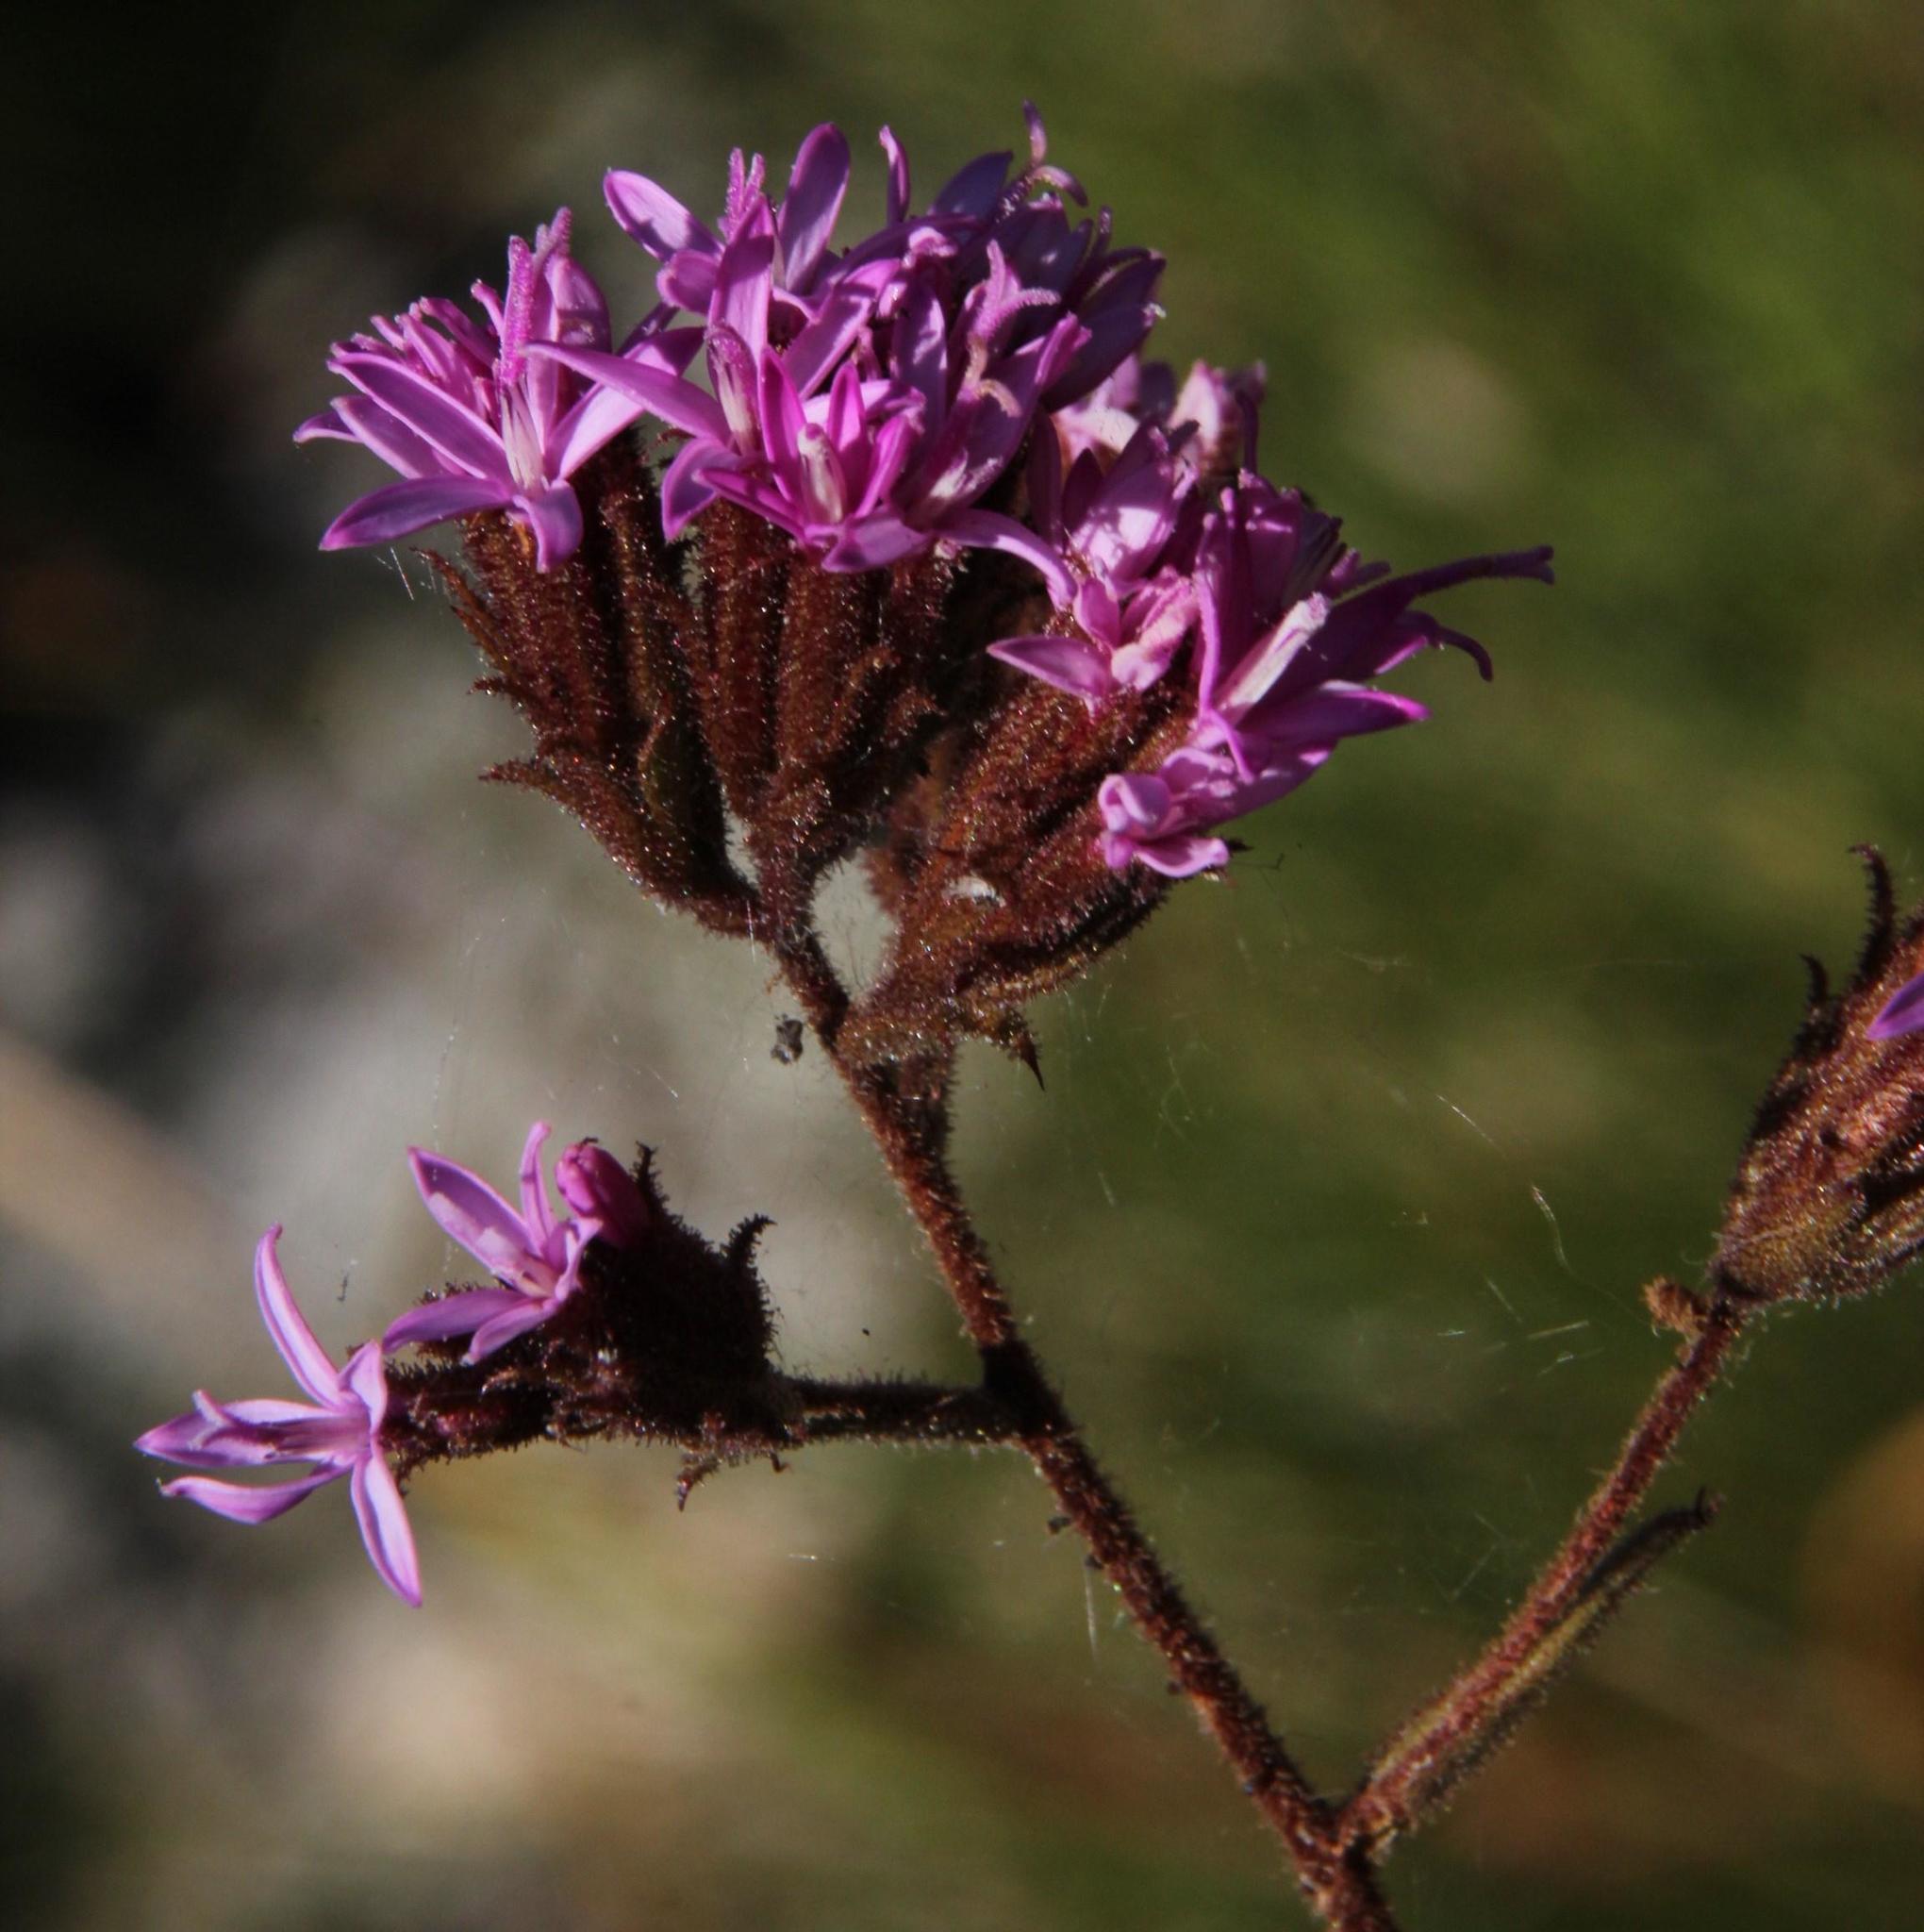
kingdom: Plantae
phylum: Tracheophyta
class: Magnoliopsida
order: Asterales
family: Asteraceae
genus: Corymbium
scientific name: Corymbium congestum
